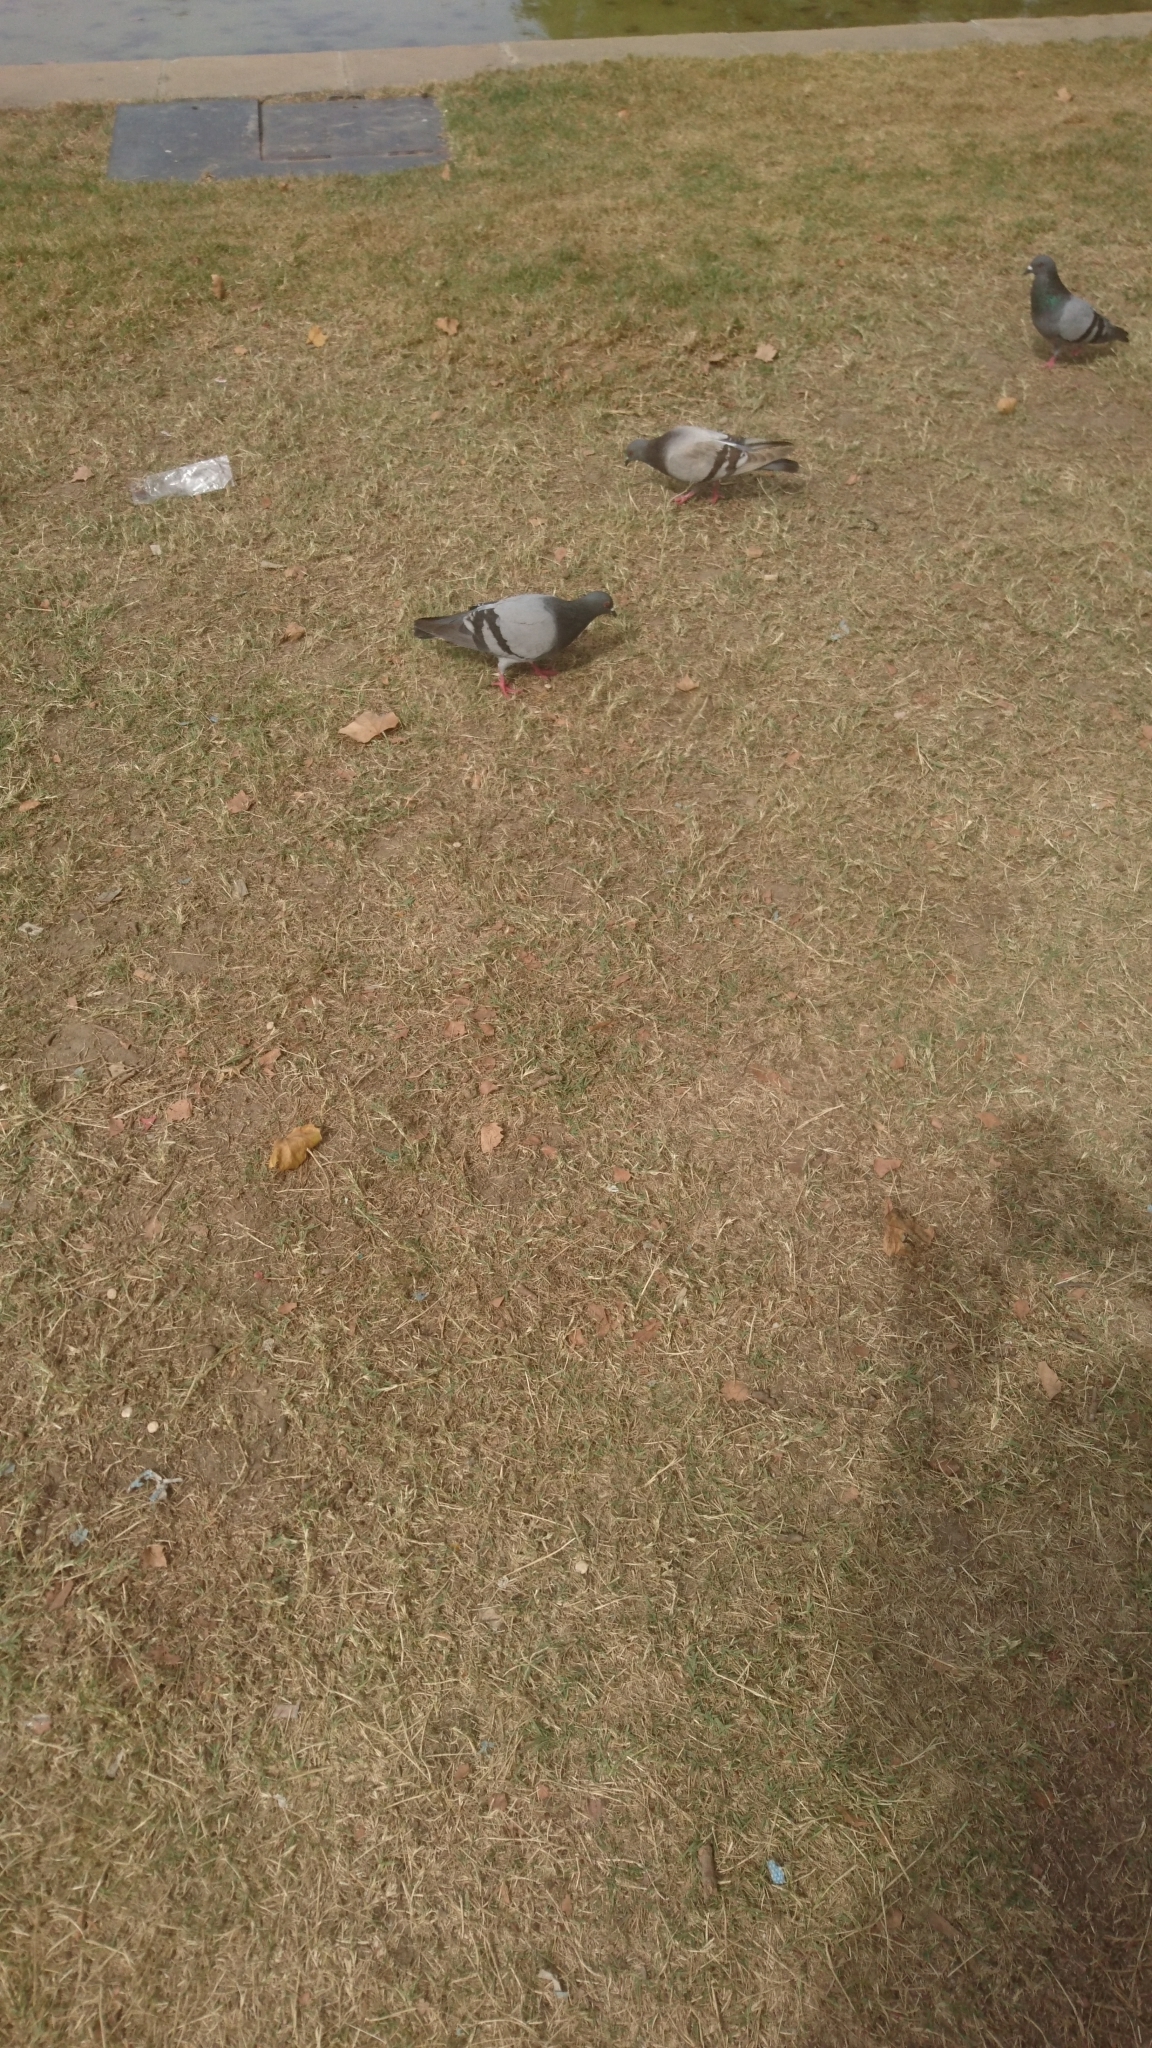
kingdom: Animalia
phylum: Chordata
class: Aves
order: Columbiformes
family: Columbidae
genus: Columba
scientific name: Columba livia
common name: Rock pigeon
